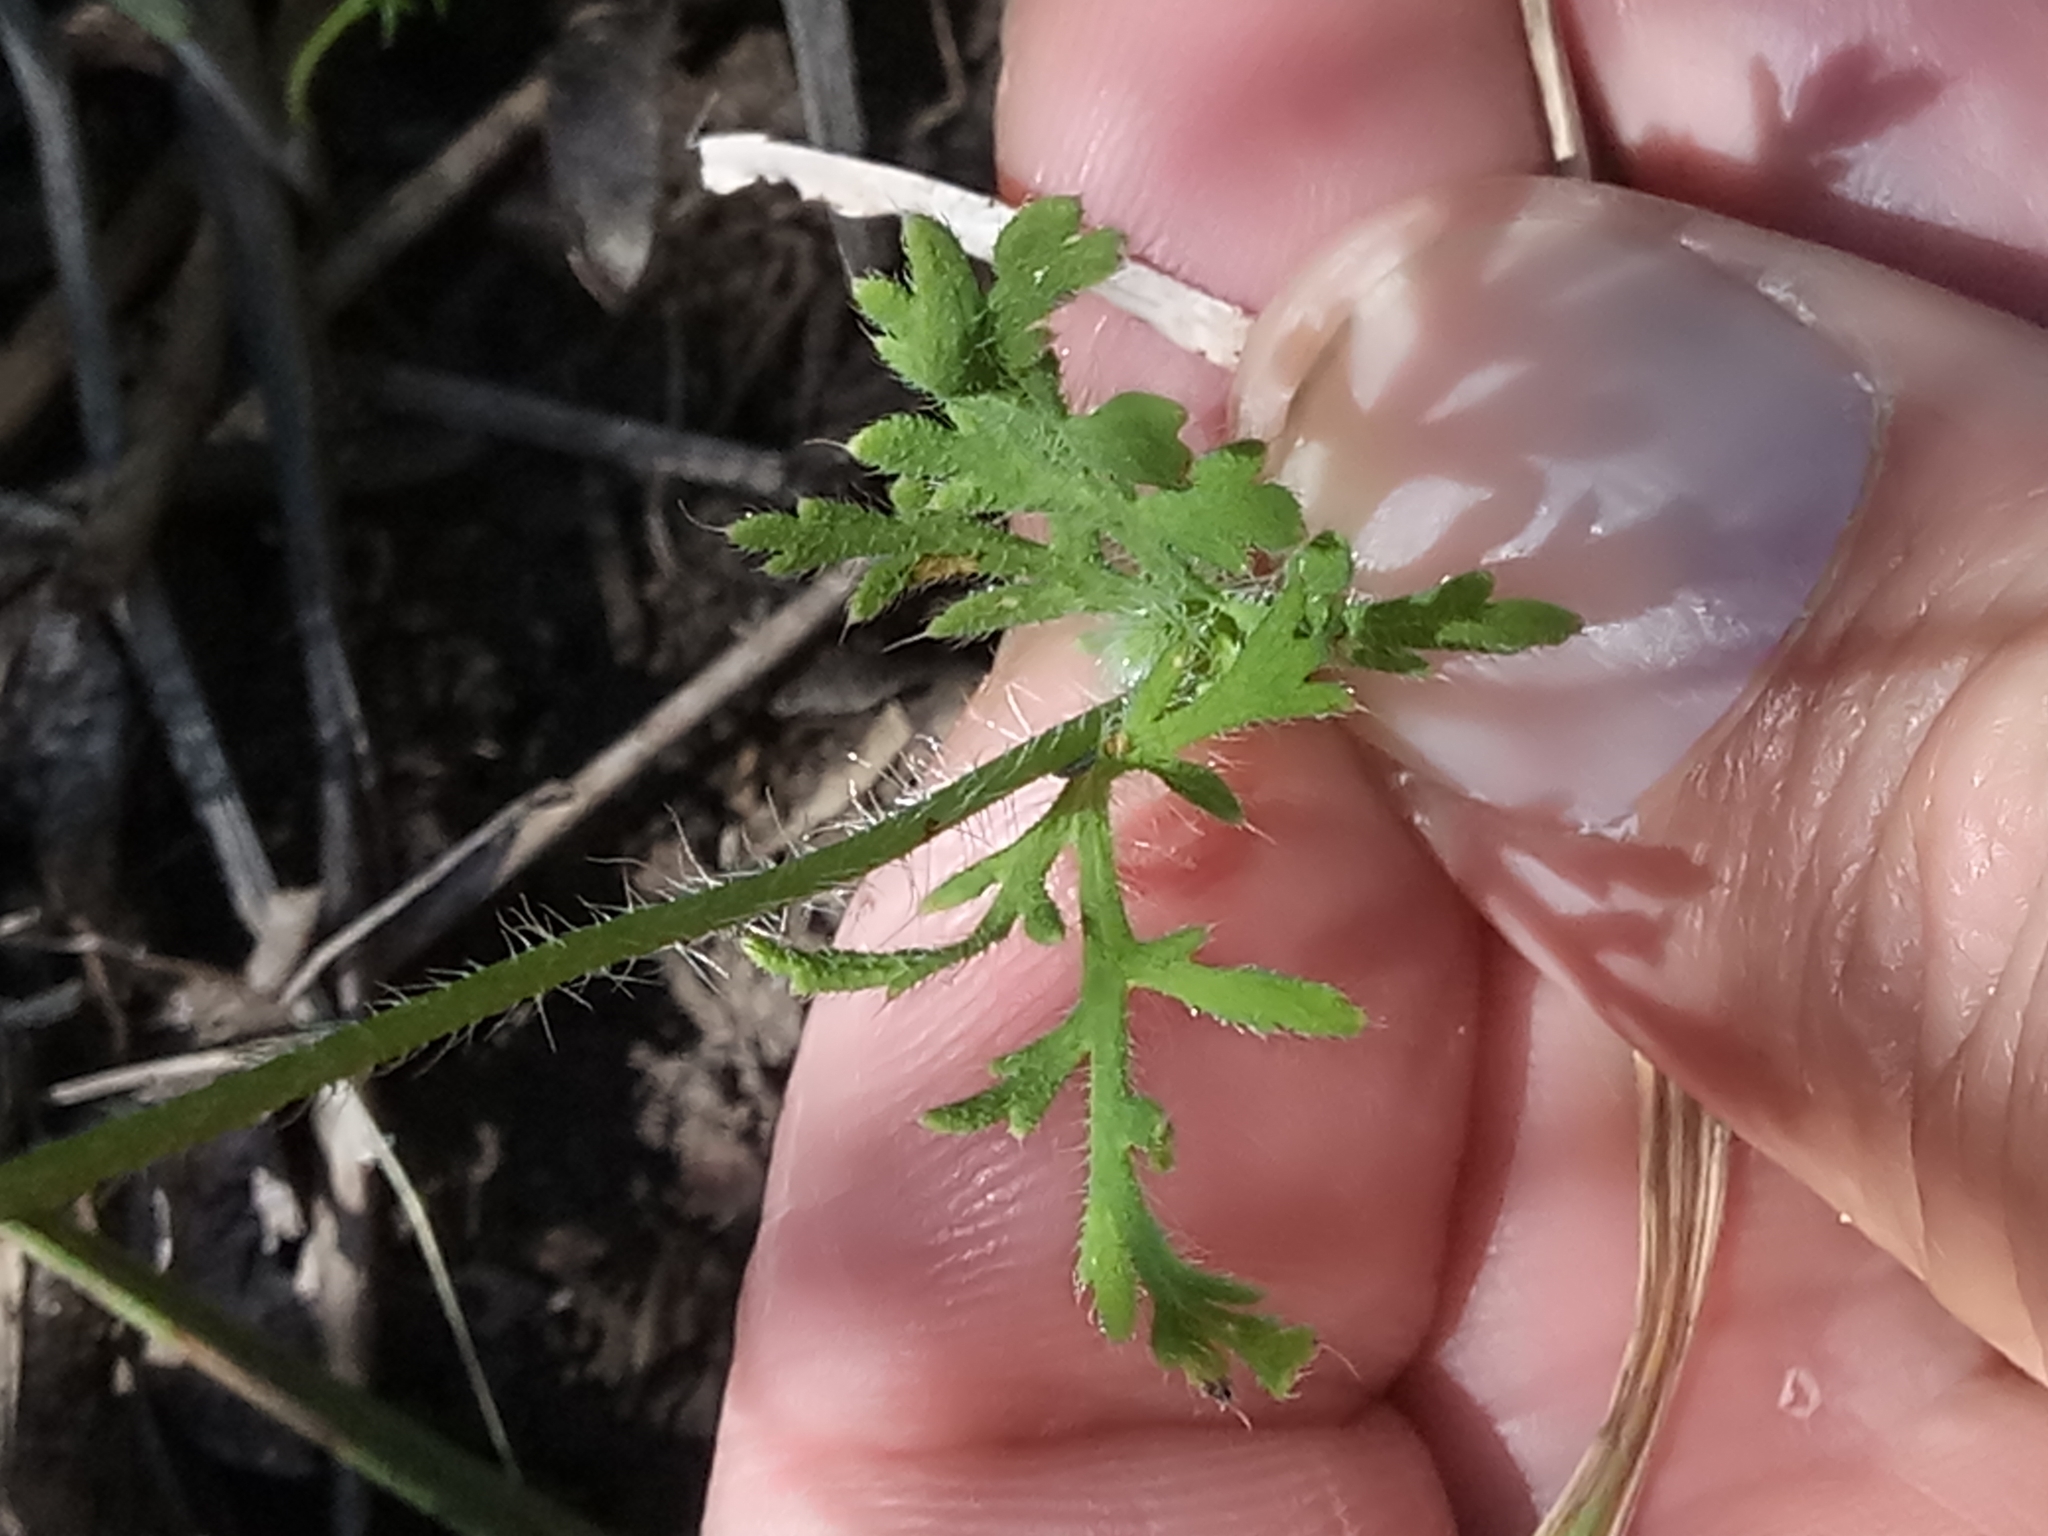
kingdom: Plantae
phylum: Tracheophyta
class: Magnoliopsida
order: Ranunculales
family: Papaveraceae
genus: Papaver
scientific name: Papaver dubium
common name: Long-headed poppy
